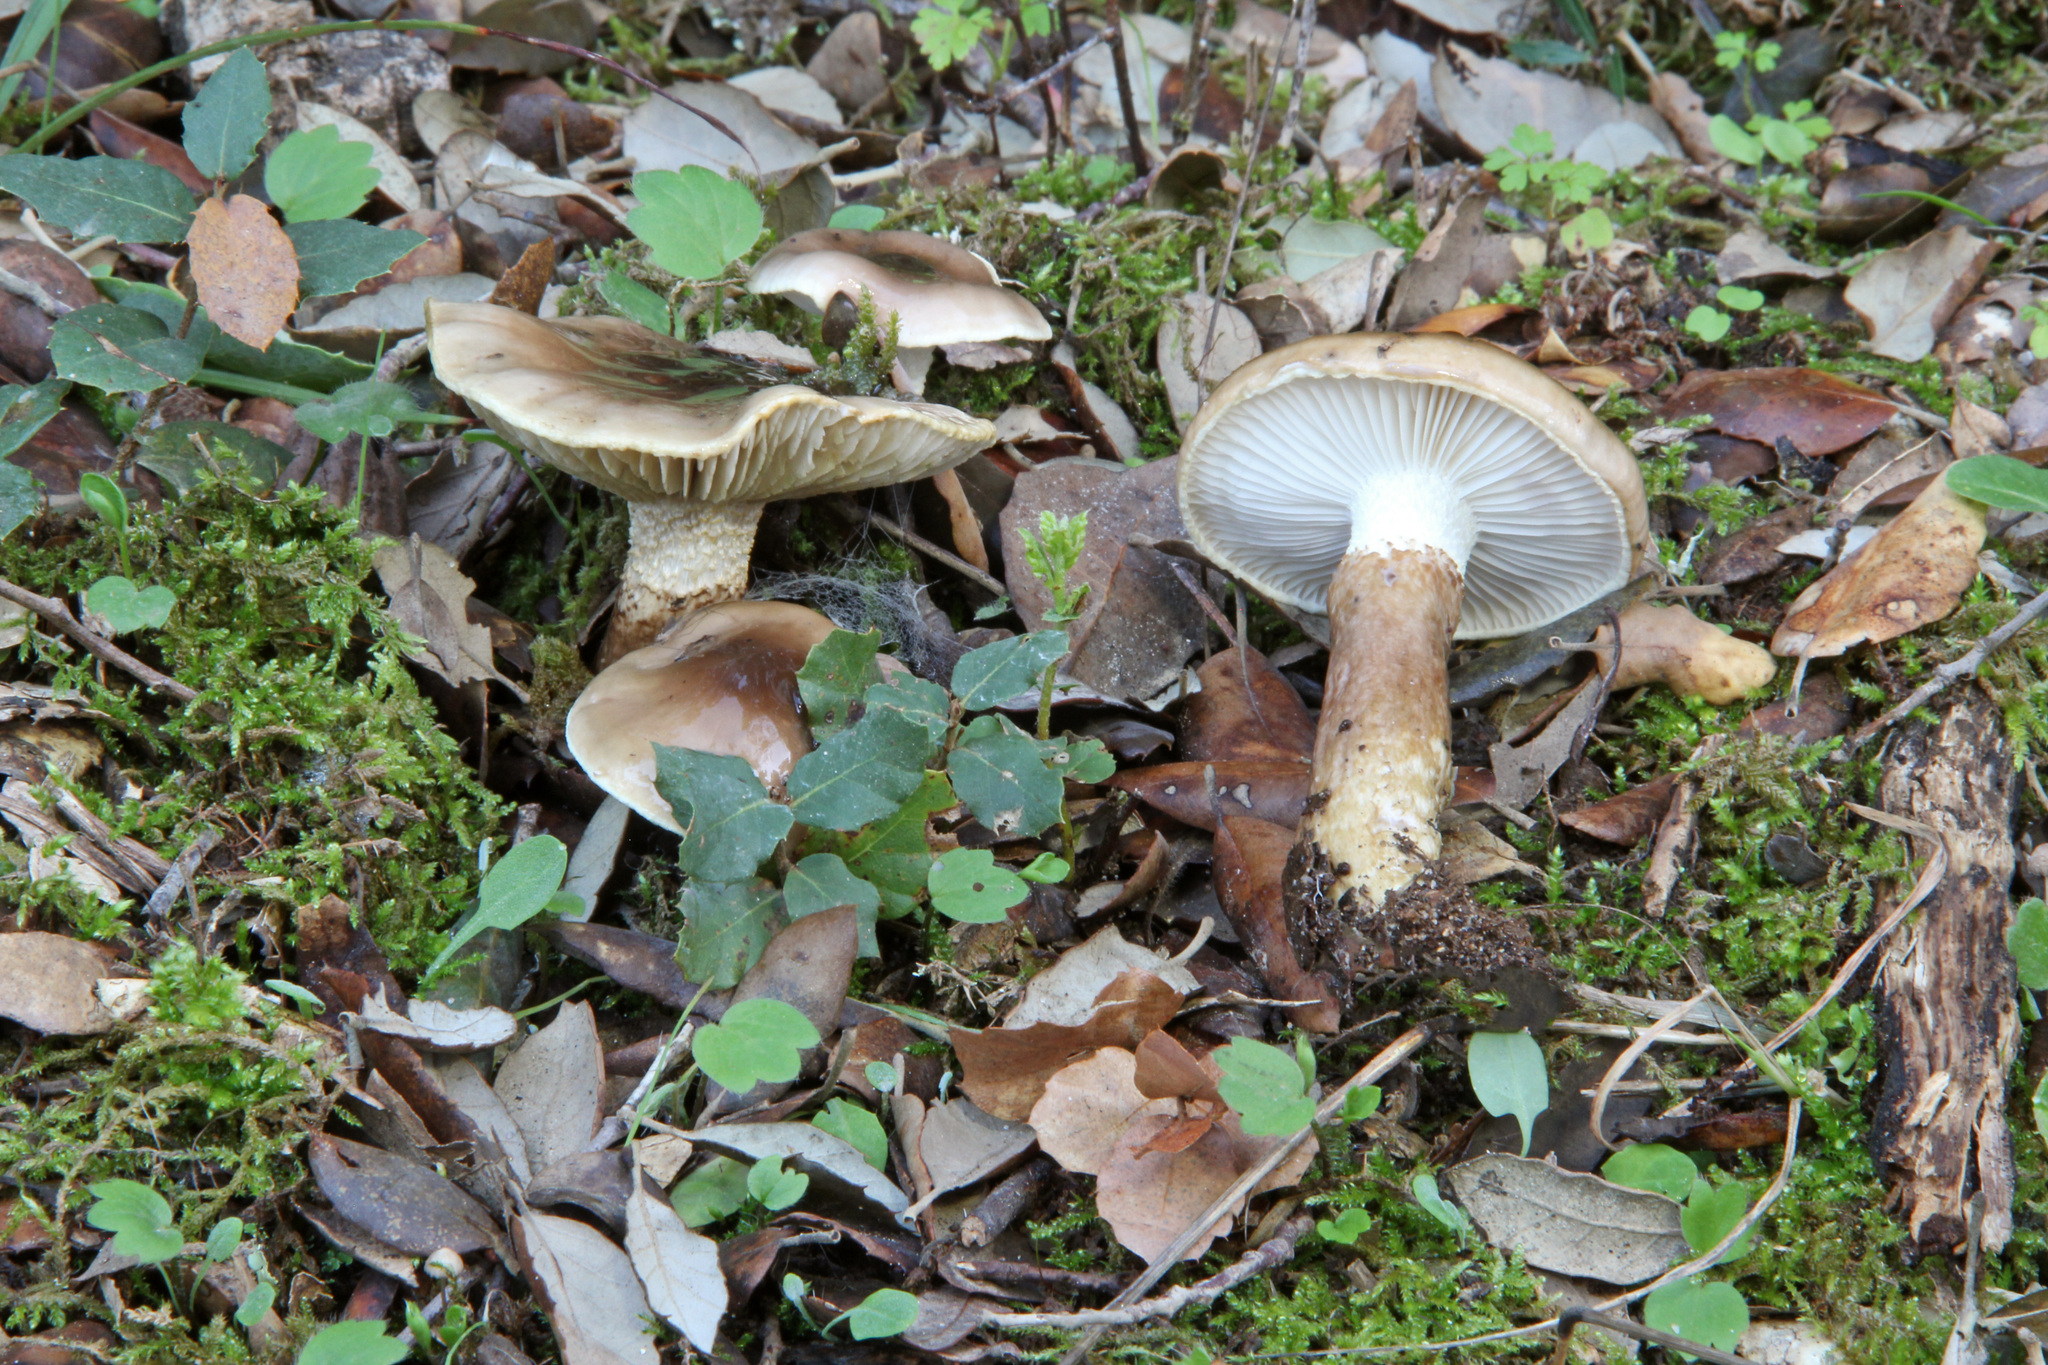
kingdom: Fungi
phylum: Basidiomycota
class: Agaricomycetes
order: Agaricales
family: Hygrophoraceae
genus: Hygrophorus
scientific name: Hygrophorus glutinifer
